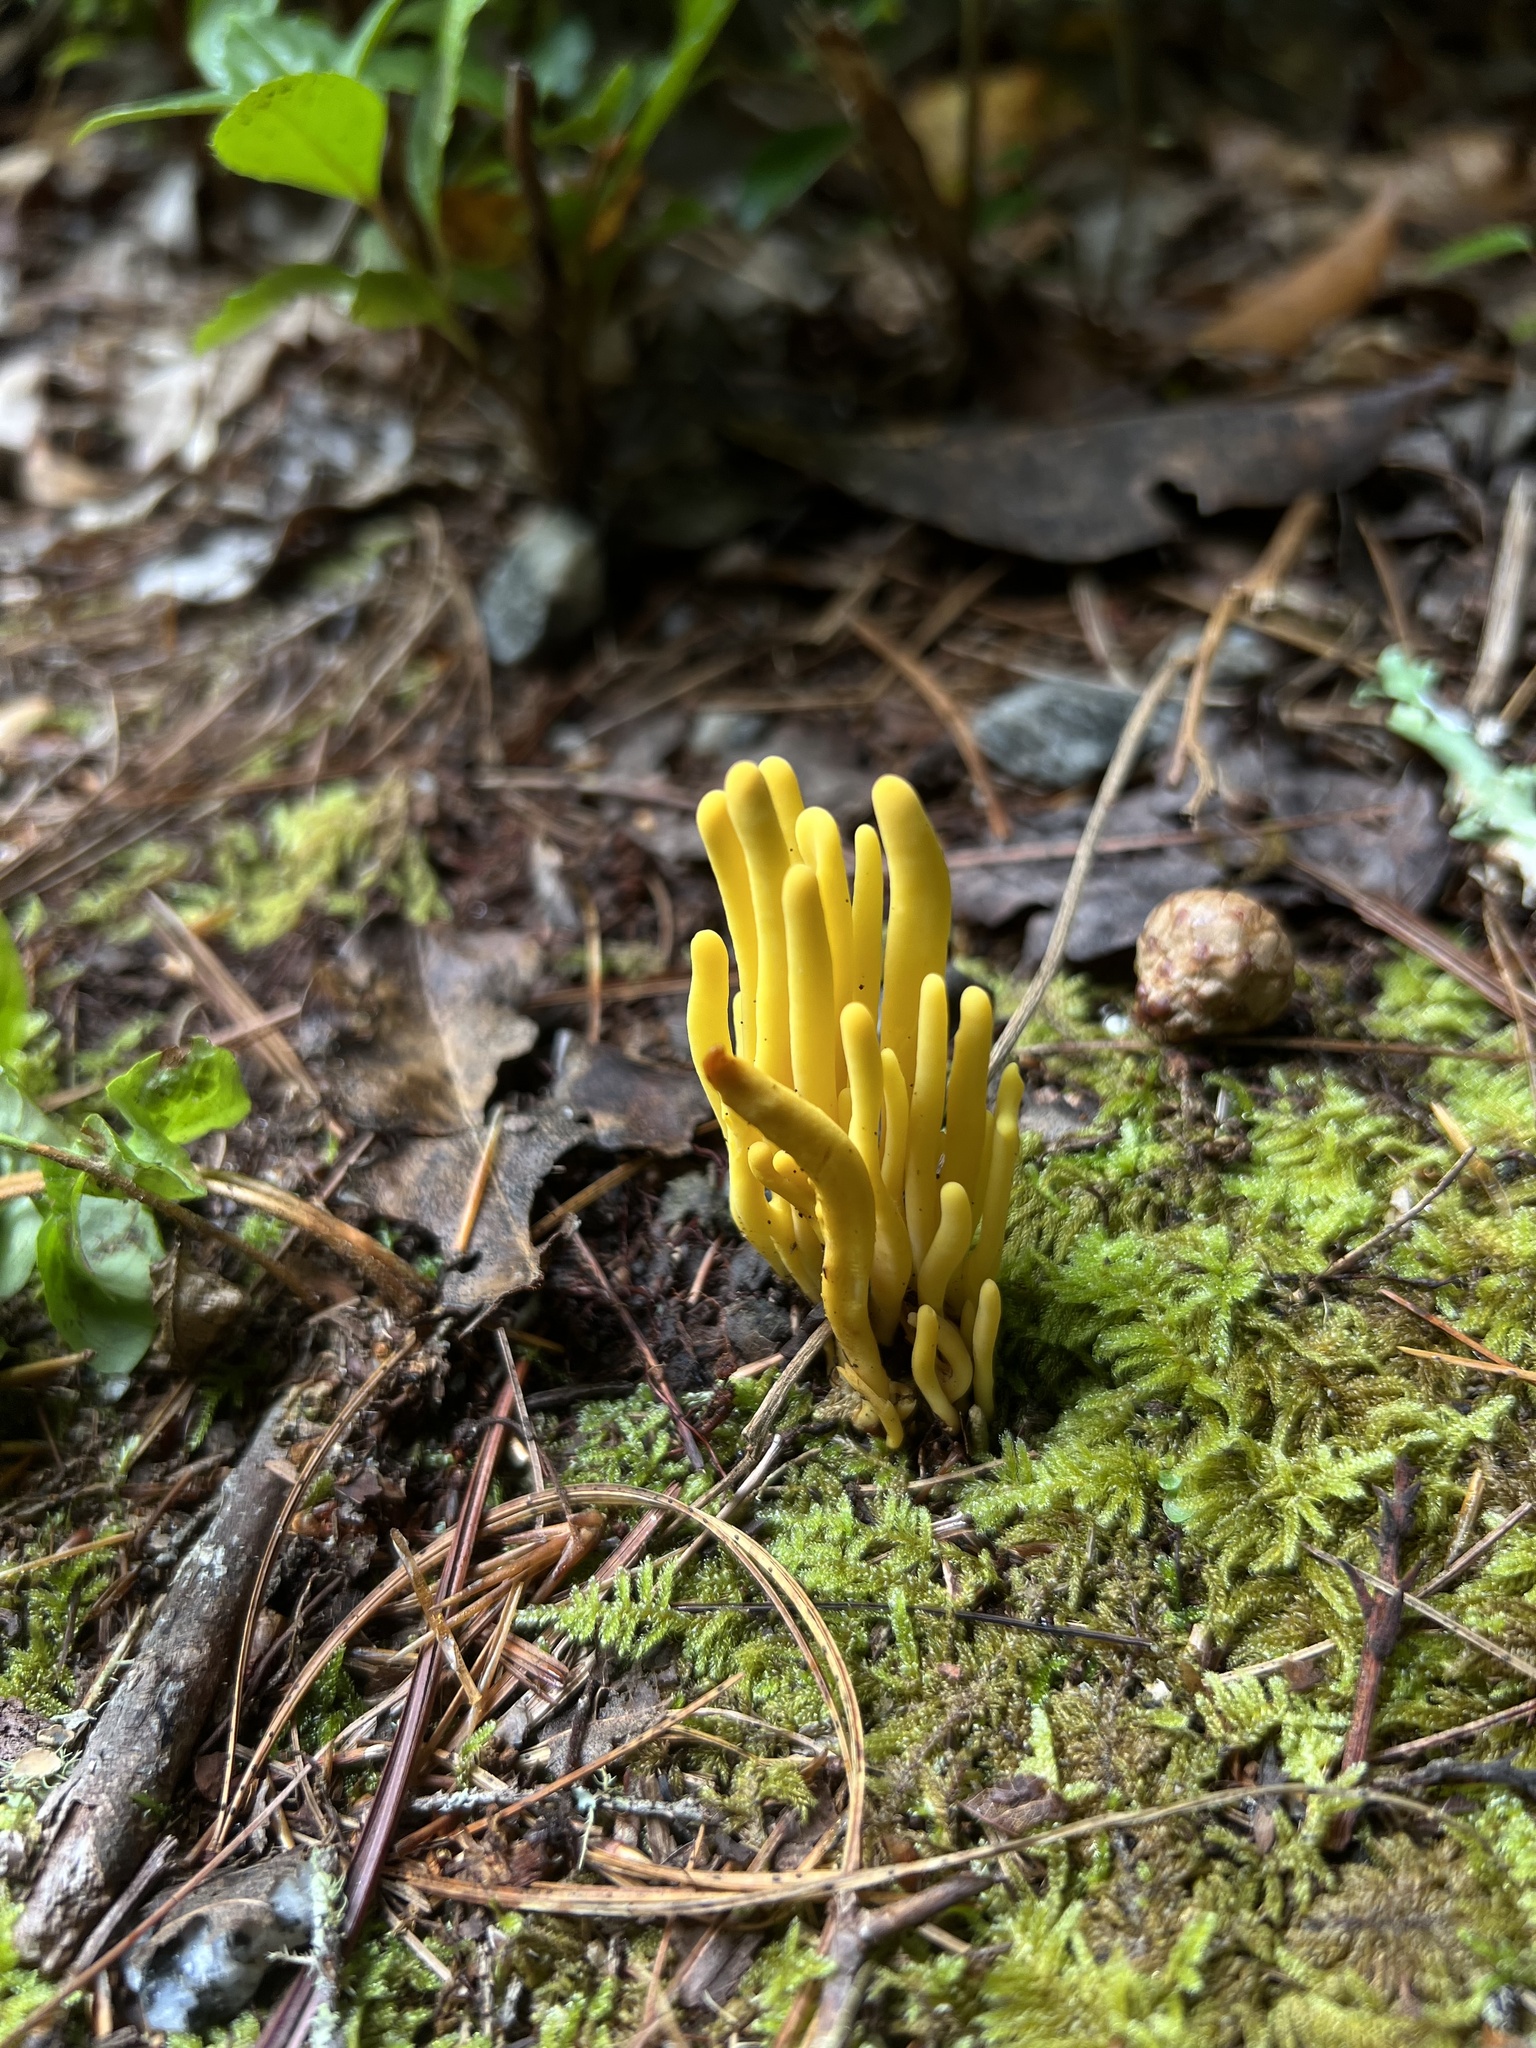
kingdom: Fungi
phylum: Basidiomycota
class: Agaricomycetes
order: Agaricales
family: Clavariaceae
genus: Clavulinopsis
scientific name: Clavulinopsis fusiformis
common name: Golden spindles
